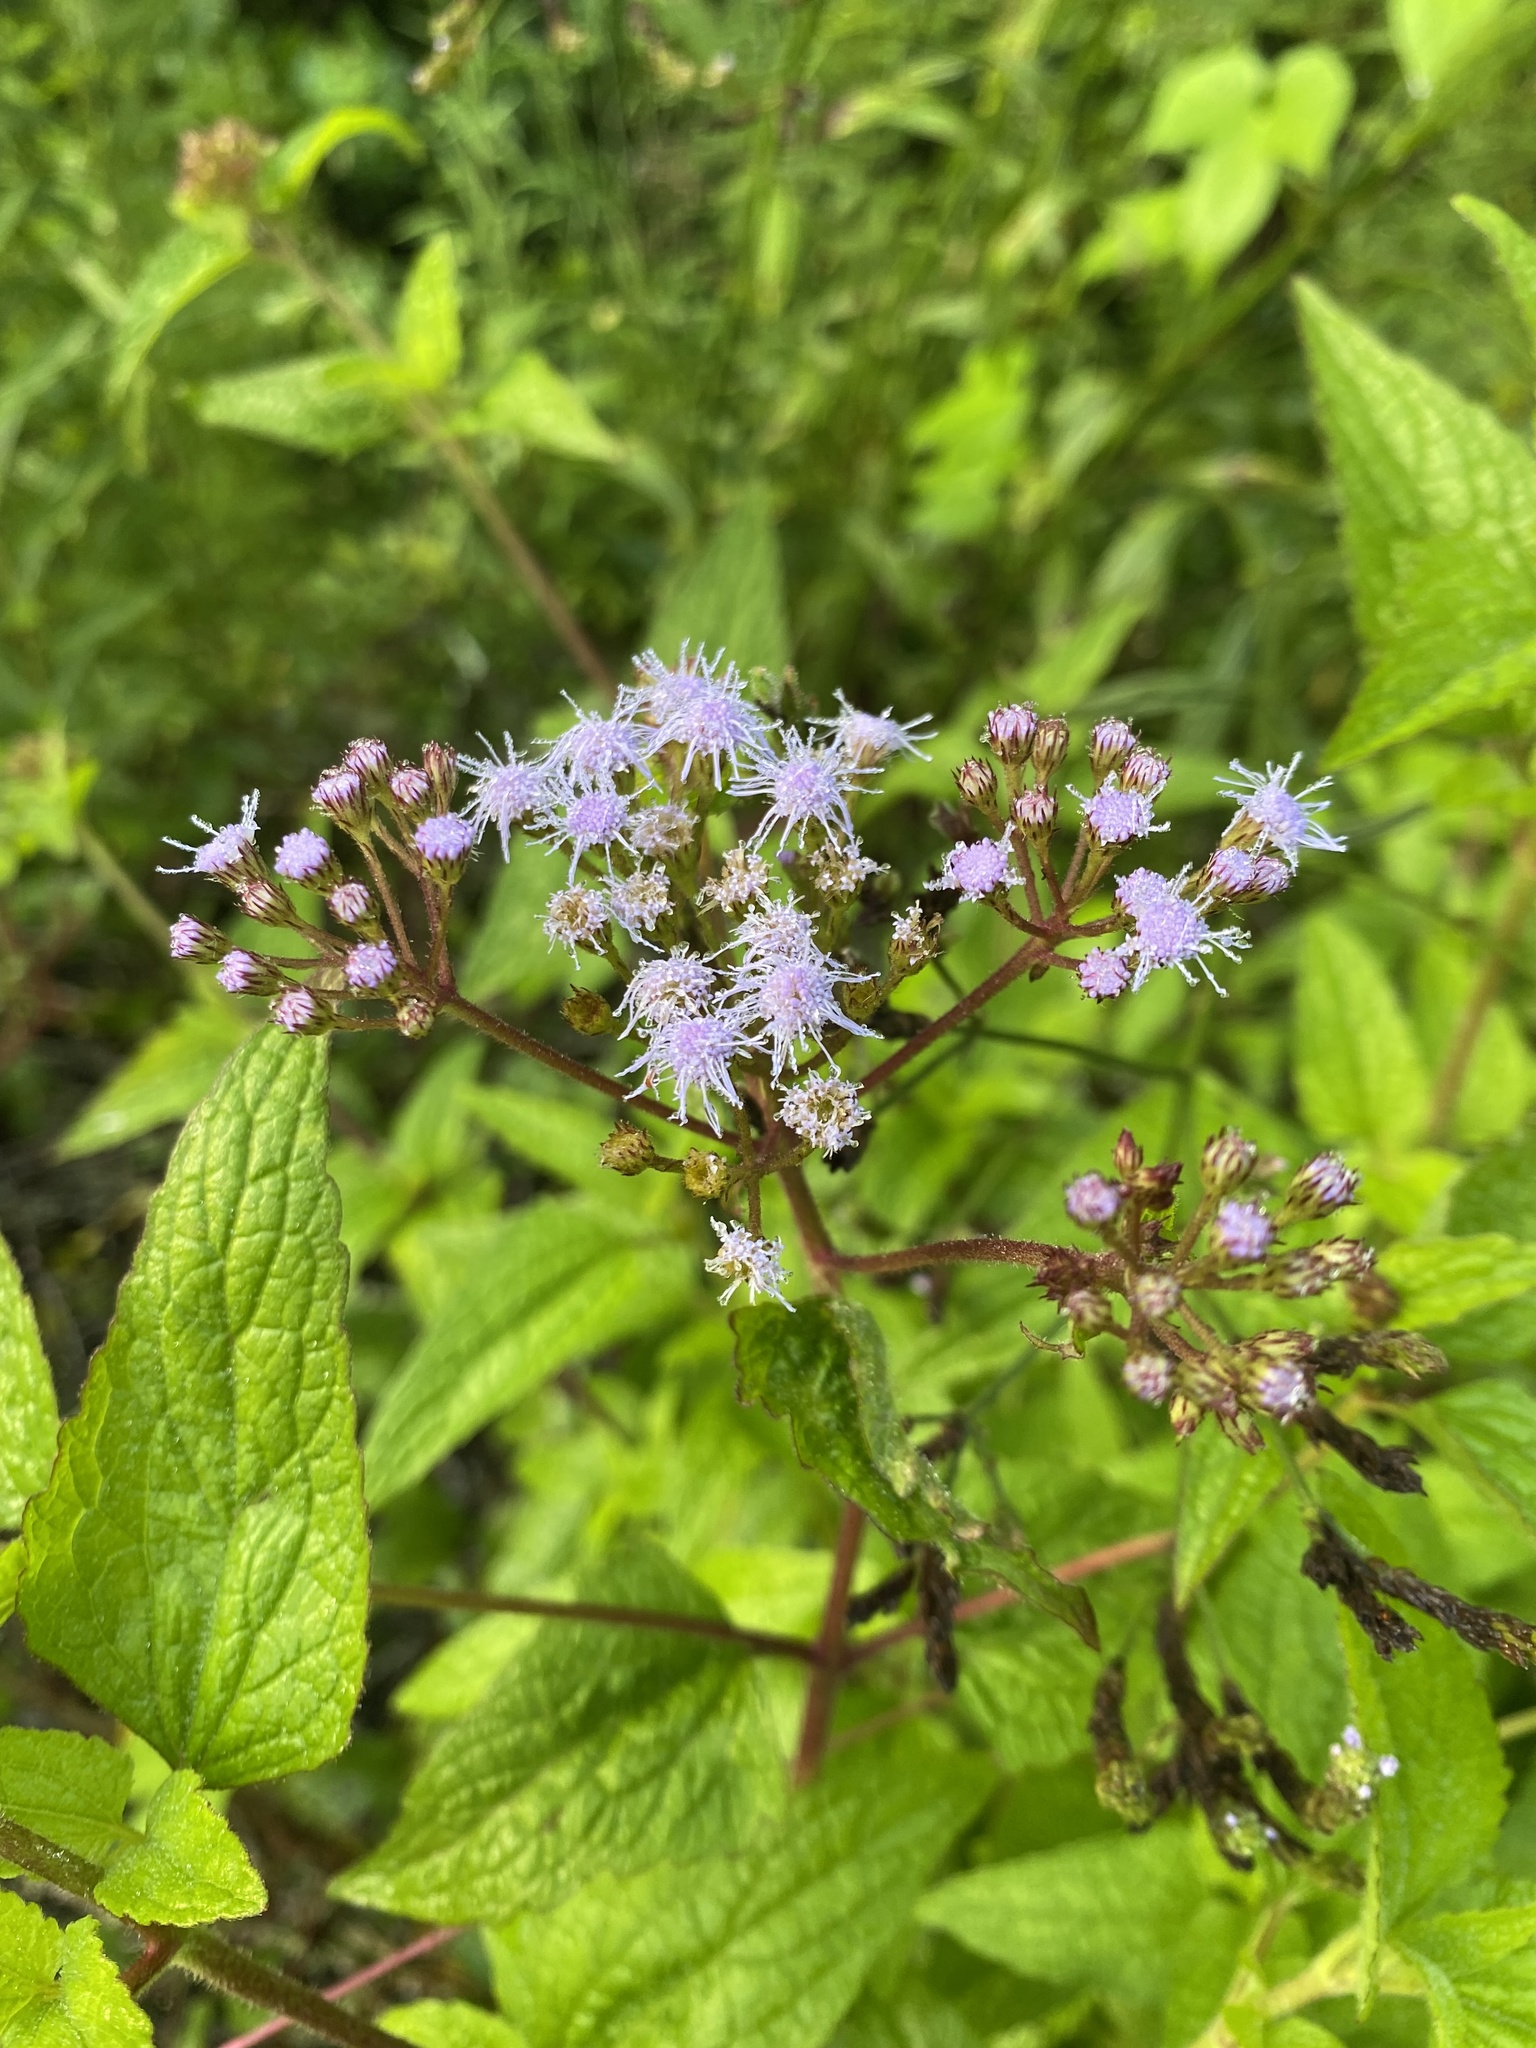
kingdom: Plantae
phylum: Tracheophyta
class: Magnoliopsida
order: Asterales
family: Asteraceae
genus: Conoclinium
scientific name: Conoclinium coelestinum
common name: Blue mistflower
